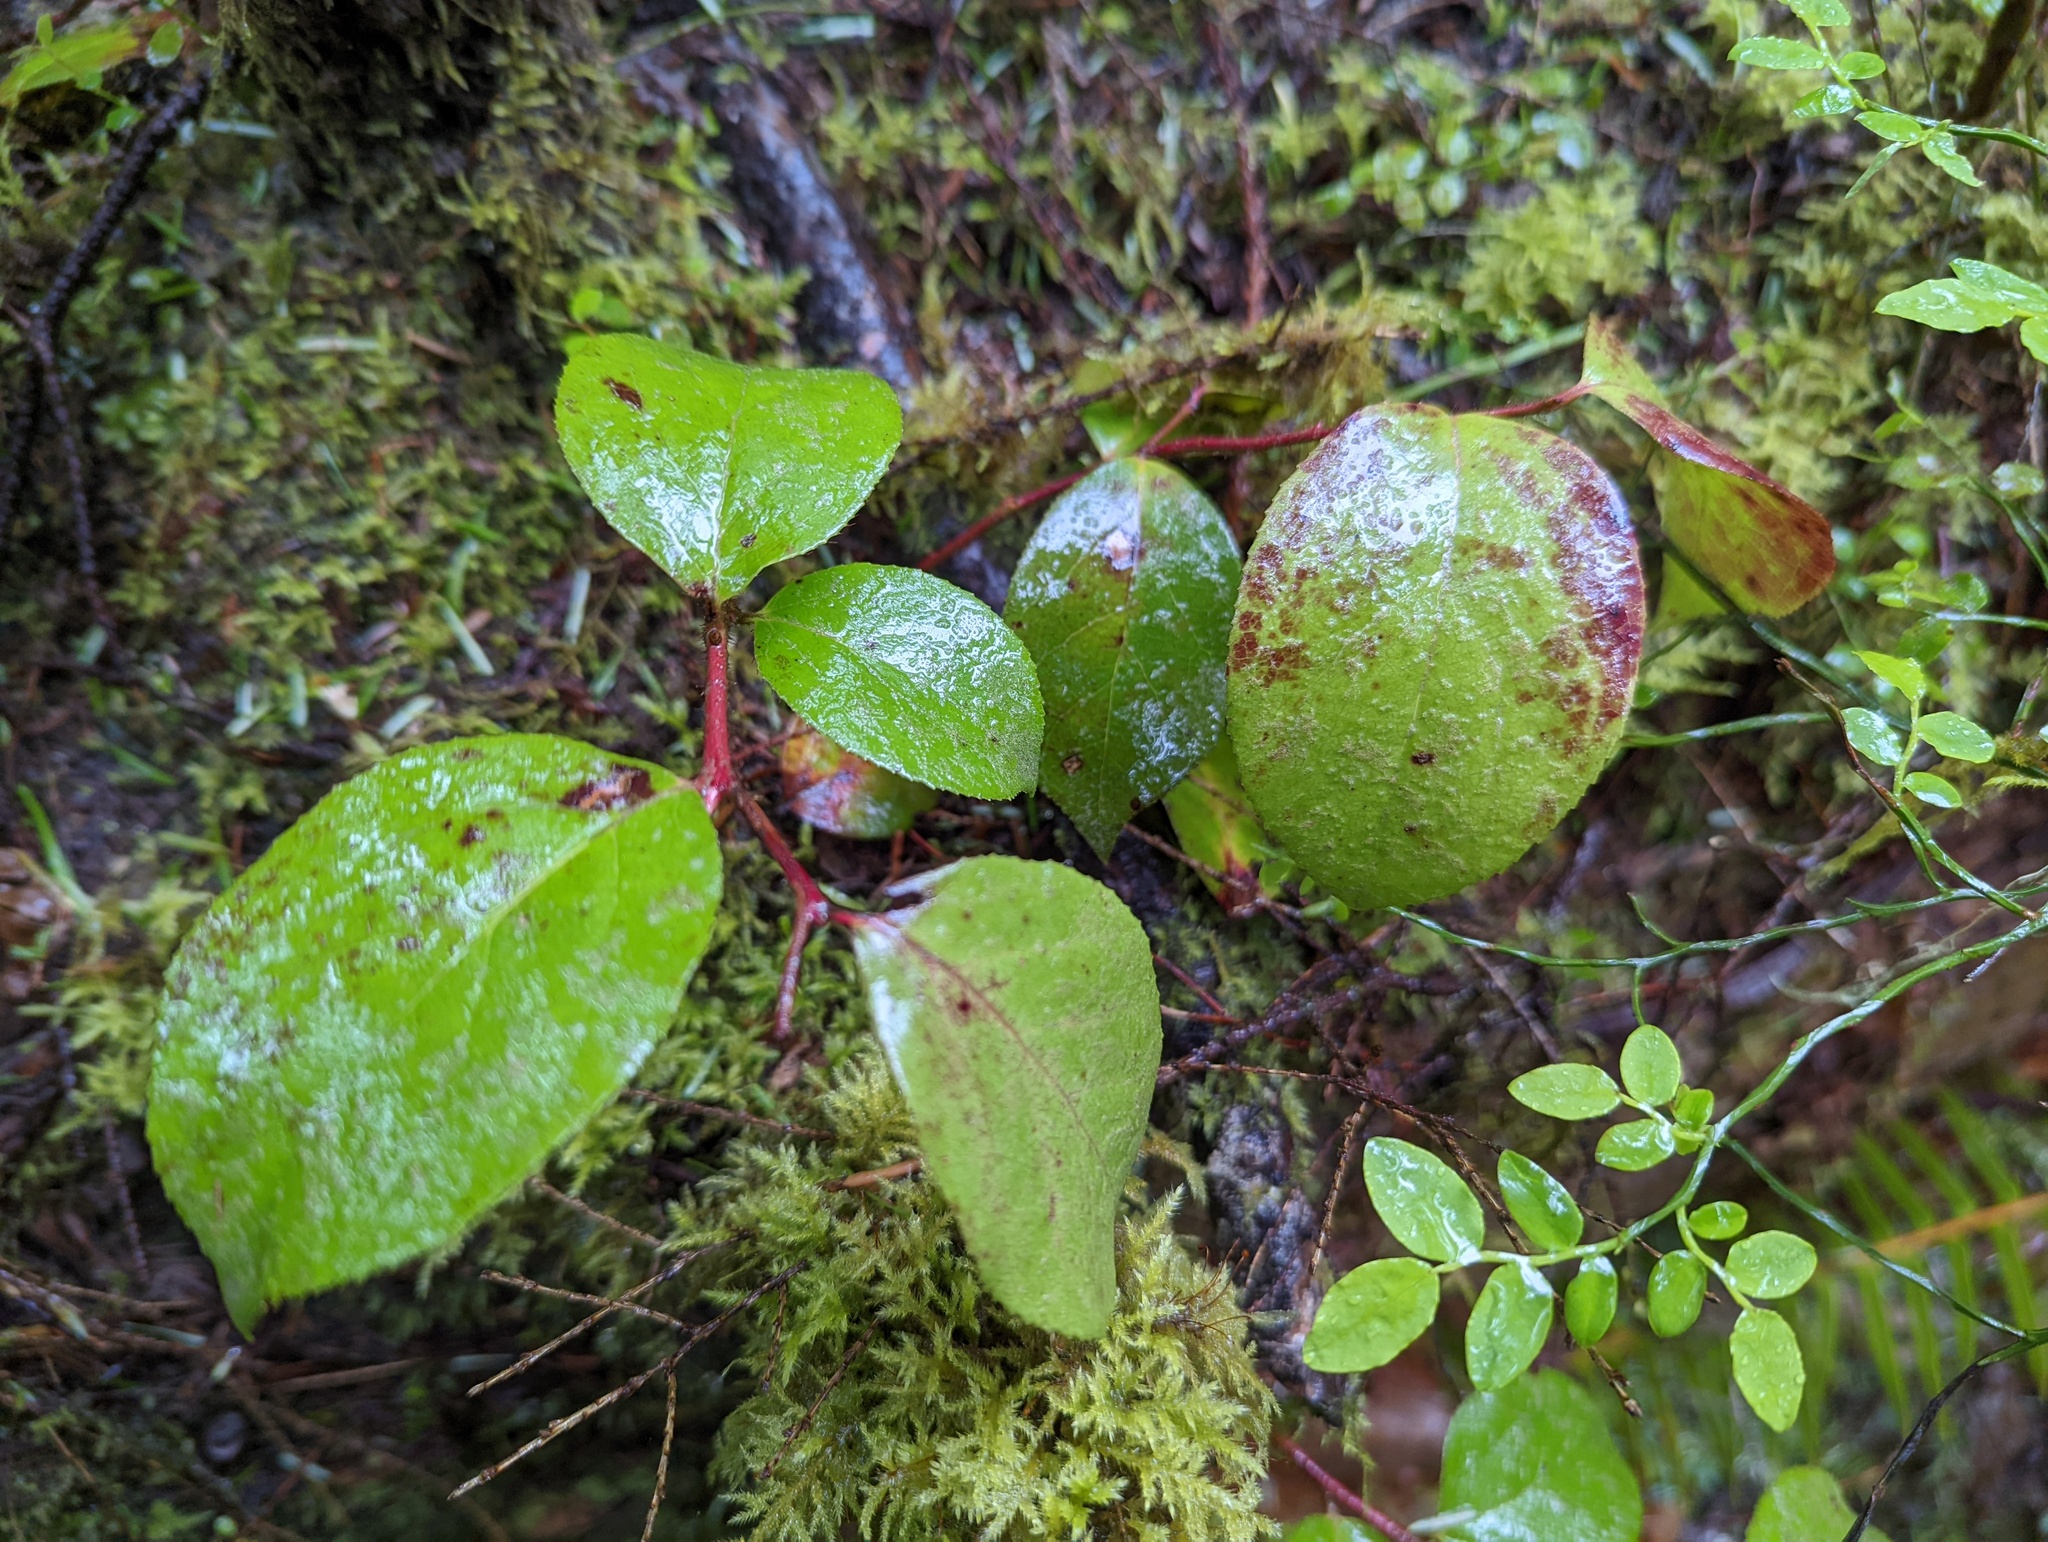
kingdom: Plantae
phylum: Tracheophyta
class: Magnoliopsida
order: Ericales
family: Ericaceae
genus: Gaultheria
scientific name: Gaultheria shallon
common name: Shallon
